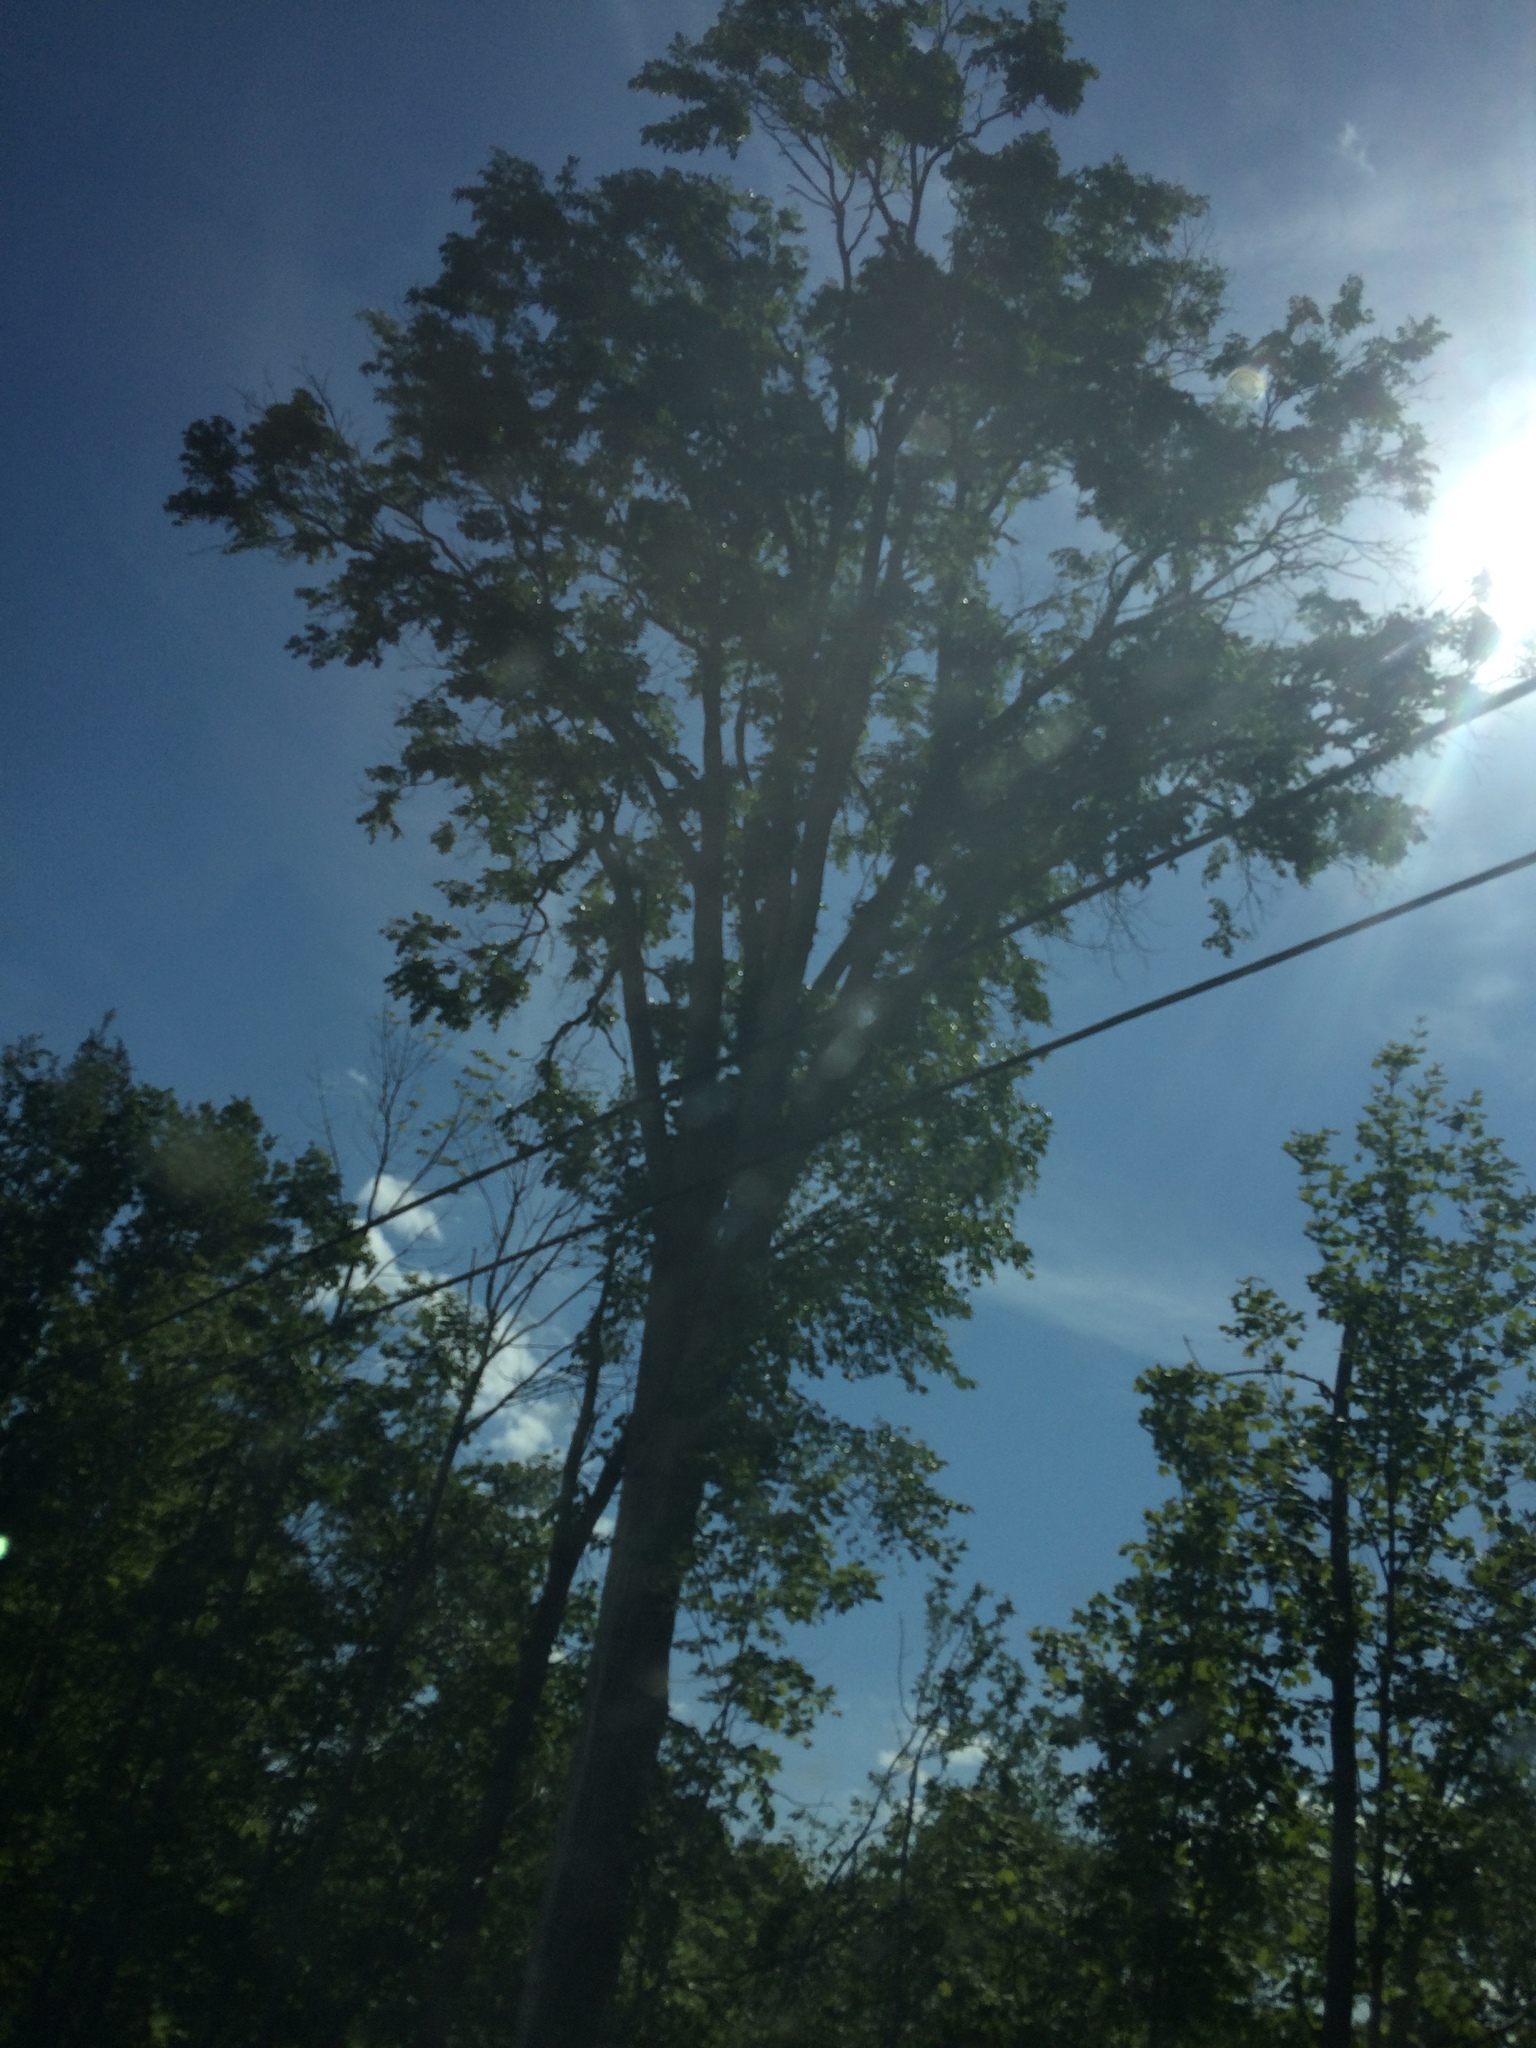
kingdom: Plantae
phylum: Tracheophyta
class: Magnoliopsida
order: Rosales
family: Ulmaceae
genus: Ulmus
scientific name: Ulmus americana
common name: American elm
